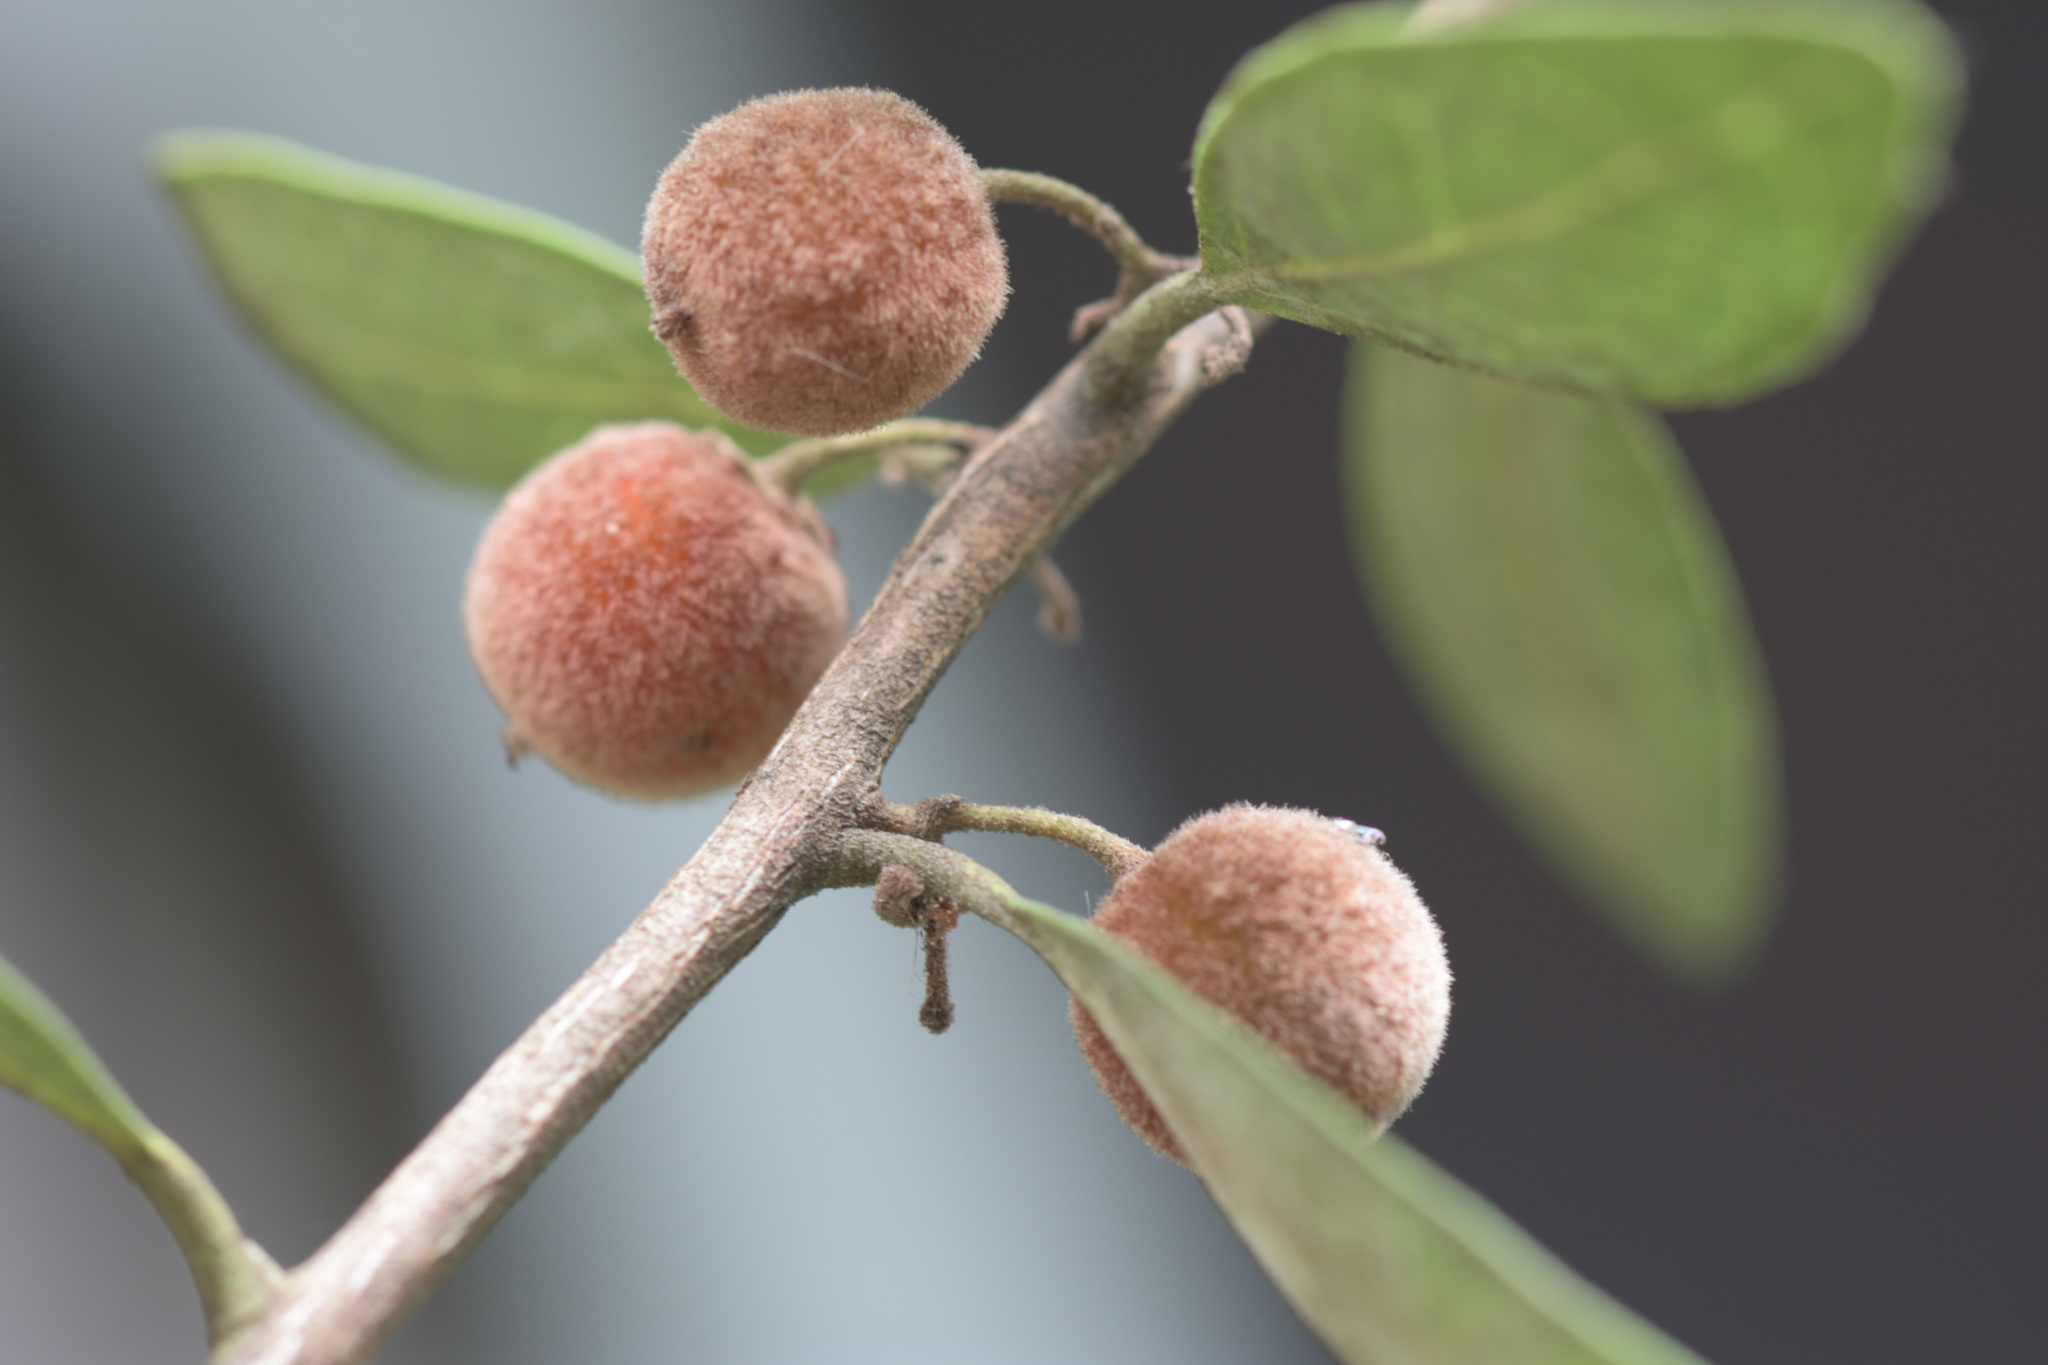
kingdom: Plantae
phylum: Tracheophyta
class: Magnoliopsida
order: Ericales
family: Ebenaceae
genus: Euclea
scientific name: Euclea polyandra
